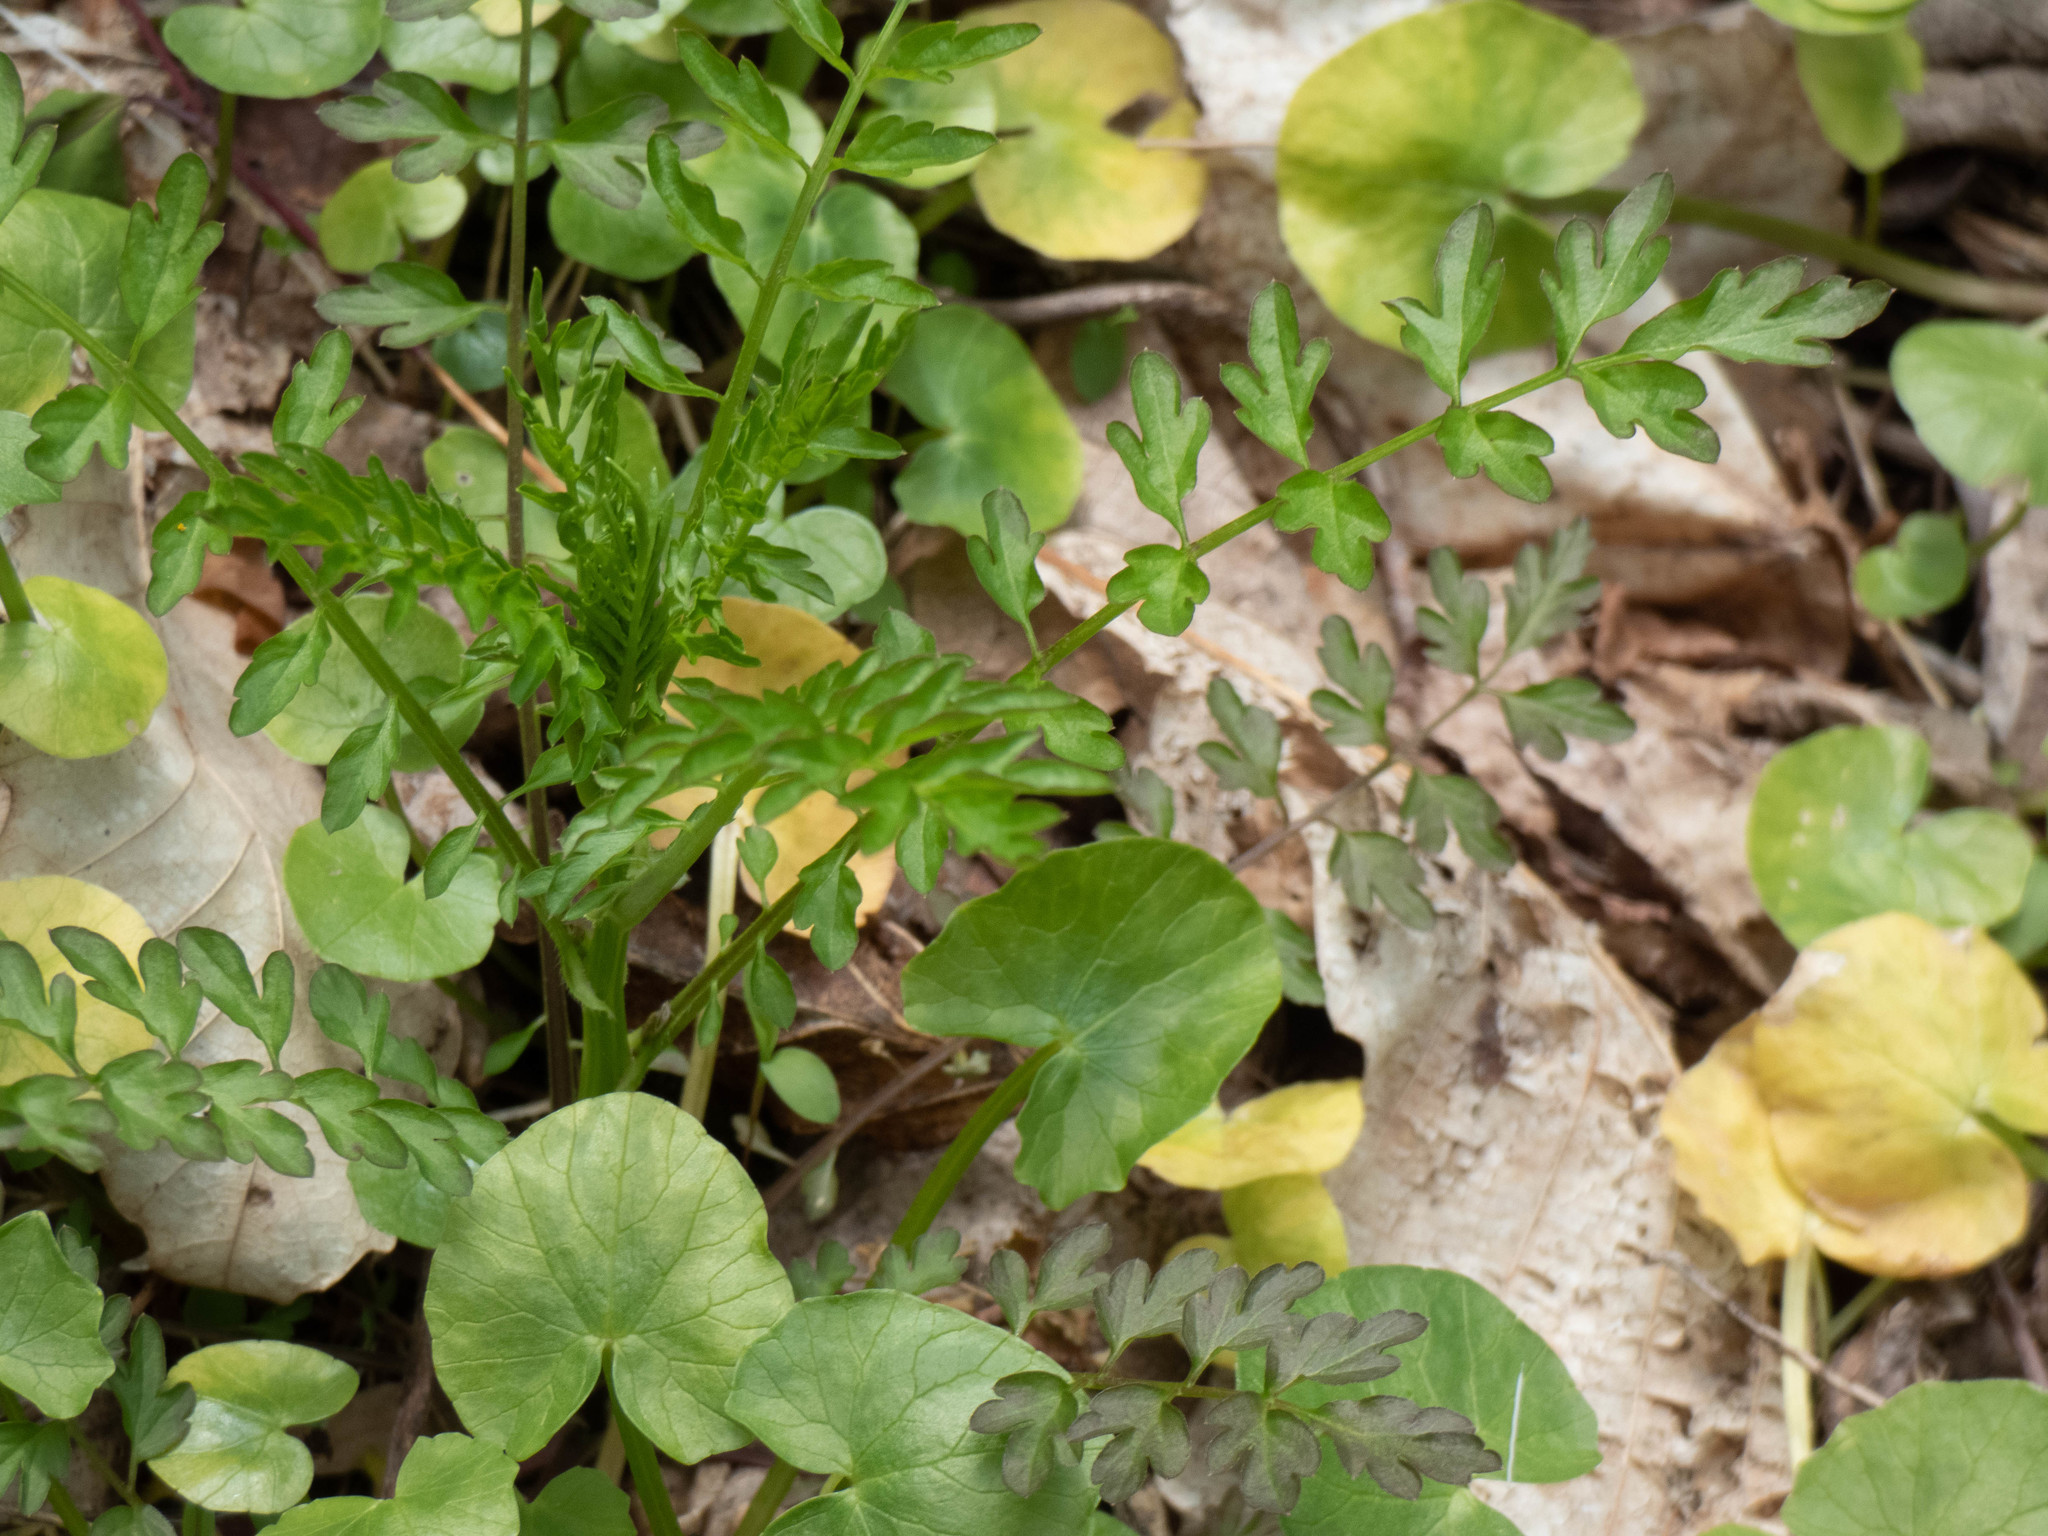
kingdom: Plantae
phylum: Tracheophyta
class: Magnoliopsida
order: Brassicales
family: Brassicaceae
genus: Cardamine
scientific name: Cardamine impatiens
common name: Narrow-leaved bitter-cress
